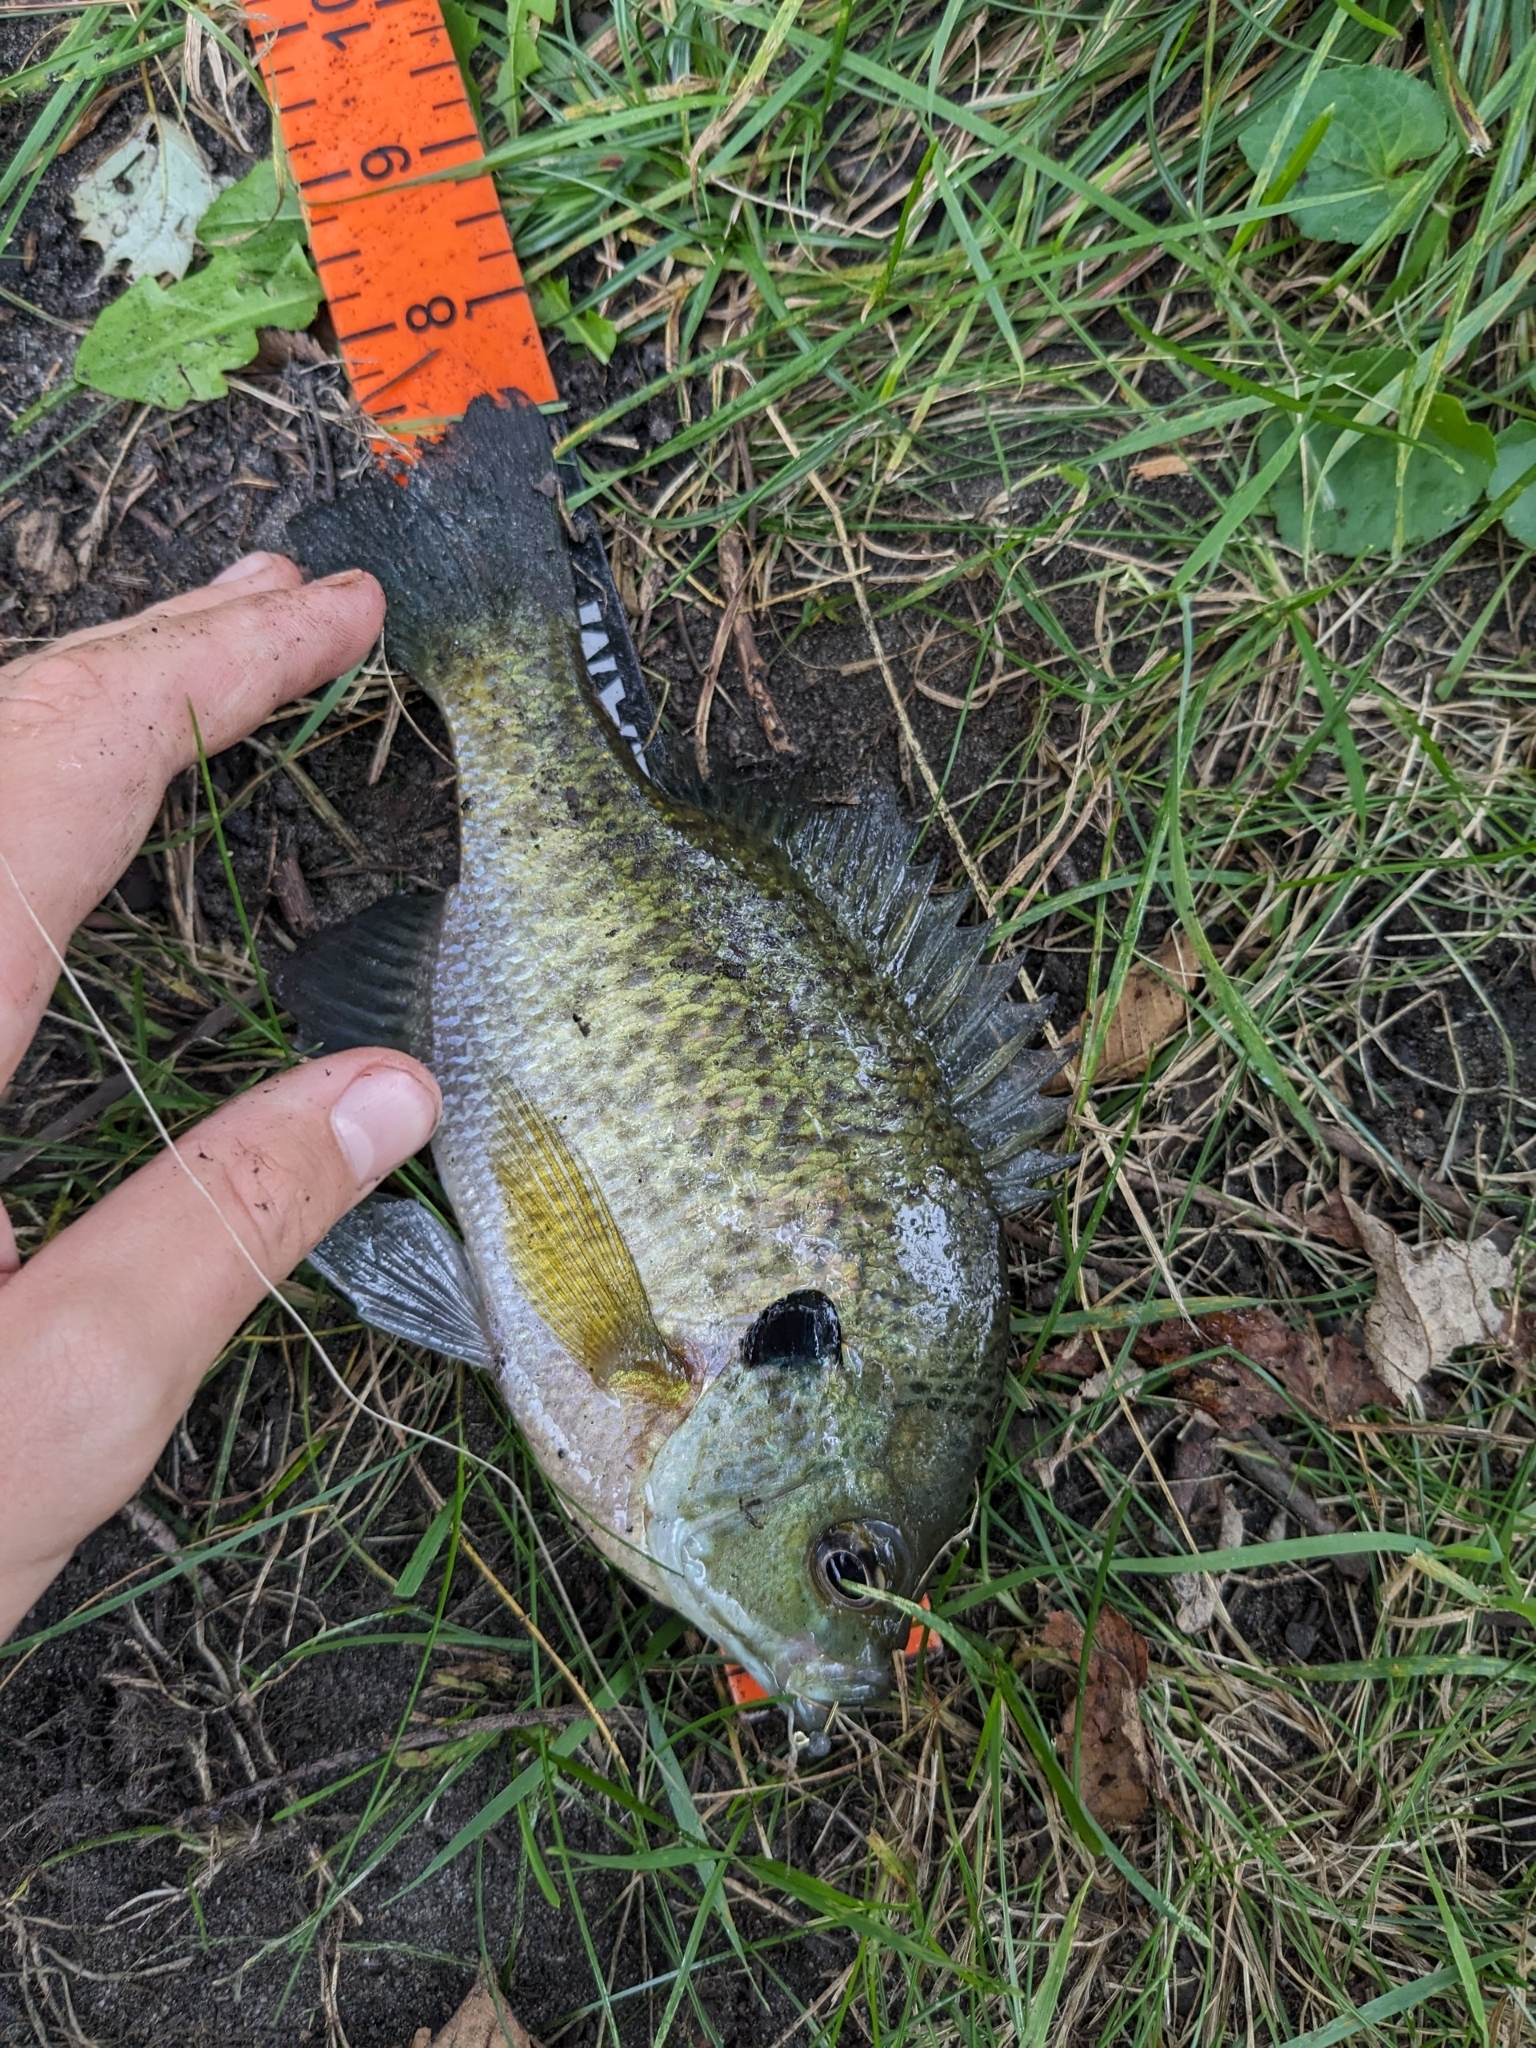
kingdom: Animalia
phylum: Chordata
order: Perciformes
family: Centrarchidae
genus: Lepomis
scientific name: Lepomis macrochirus
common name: Bluegill
